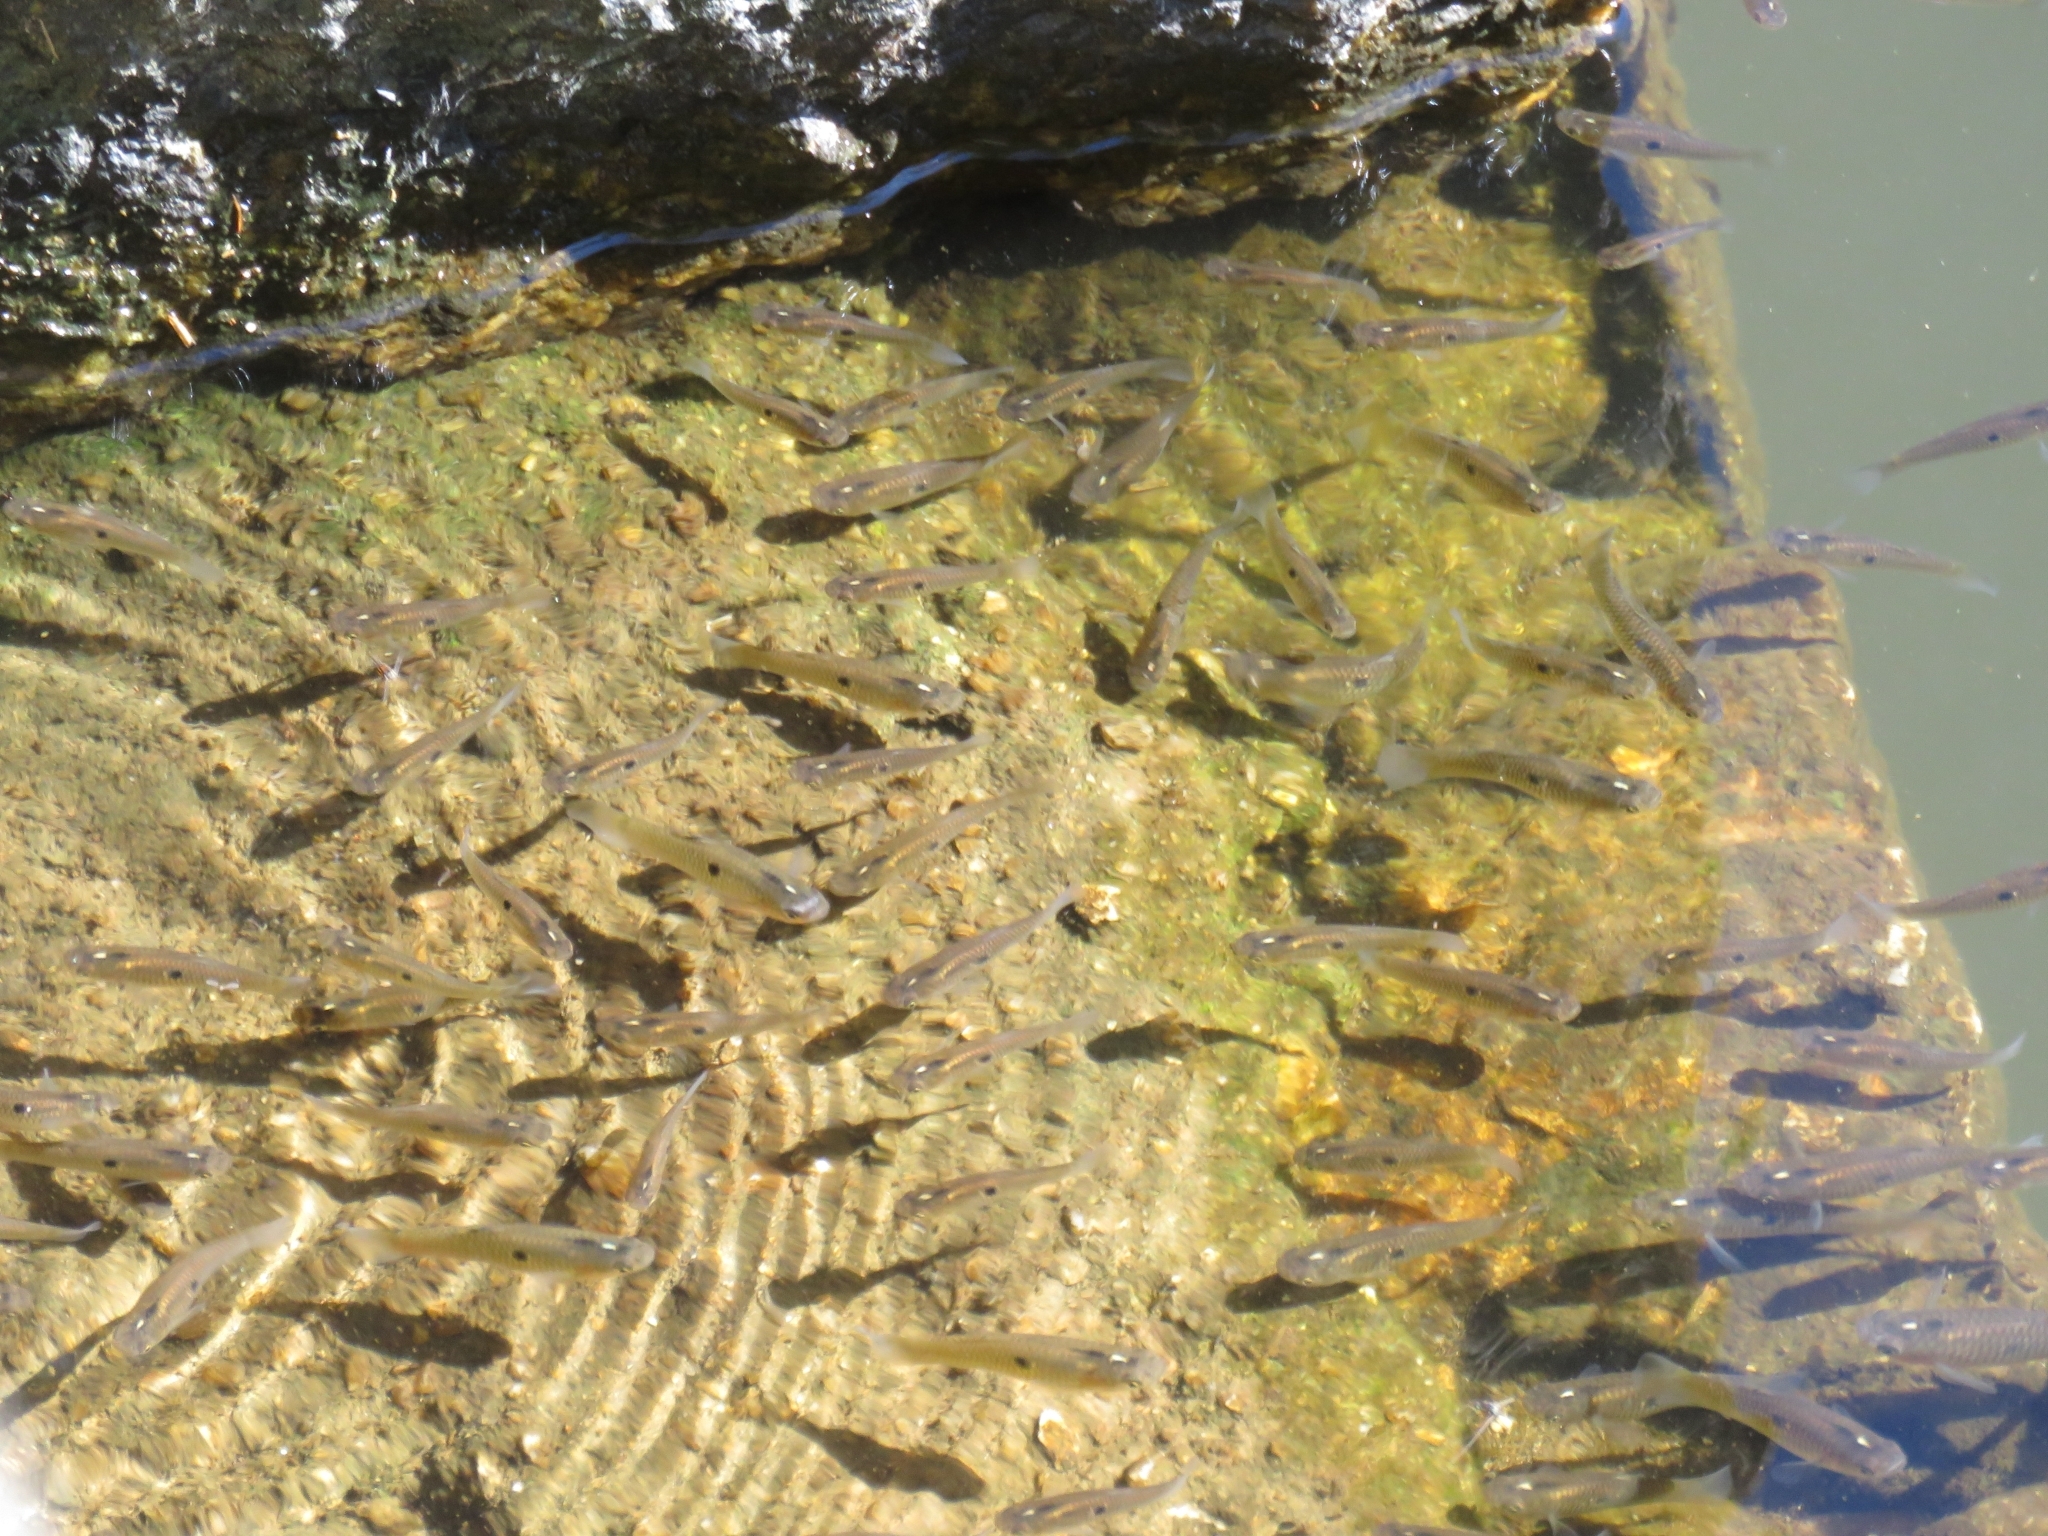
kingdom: Animalia
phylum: Chordata
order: Cyprinodontiformes
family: Poeciliidae
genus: Phalloceros
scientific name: Phalloceros caudimaculatus
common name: Dusky millions fish
